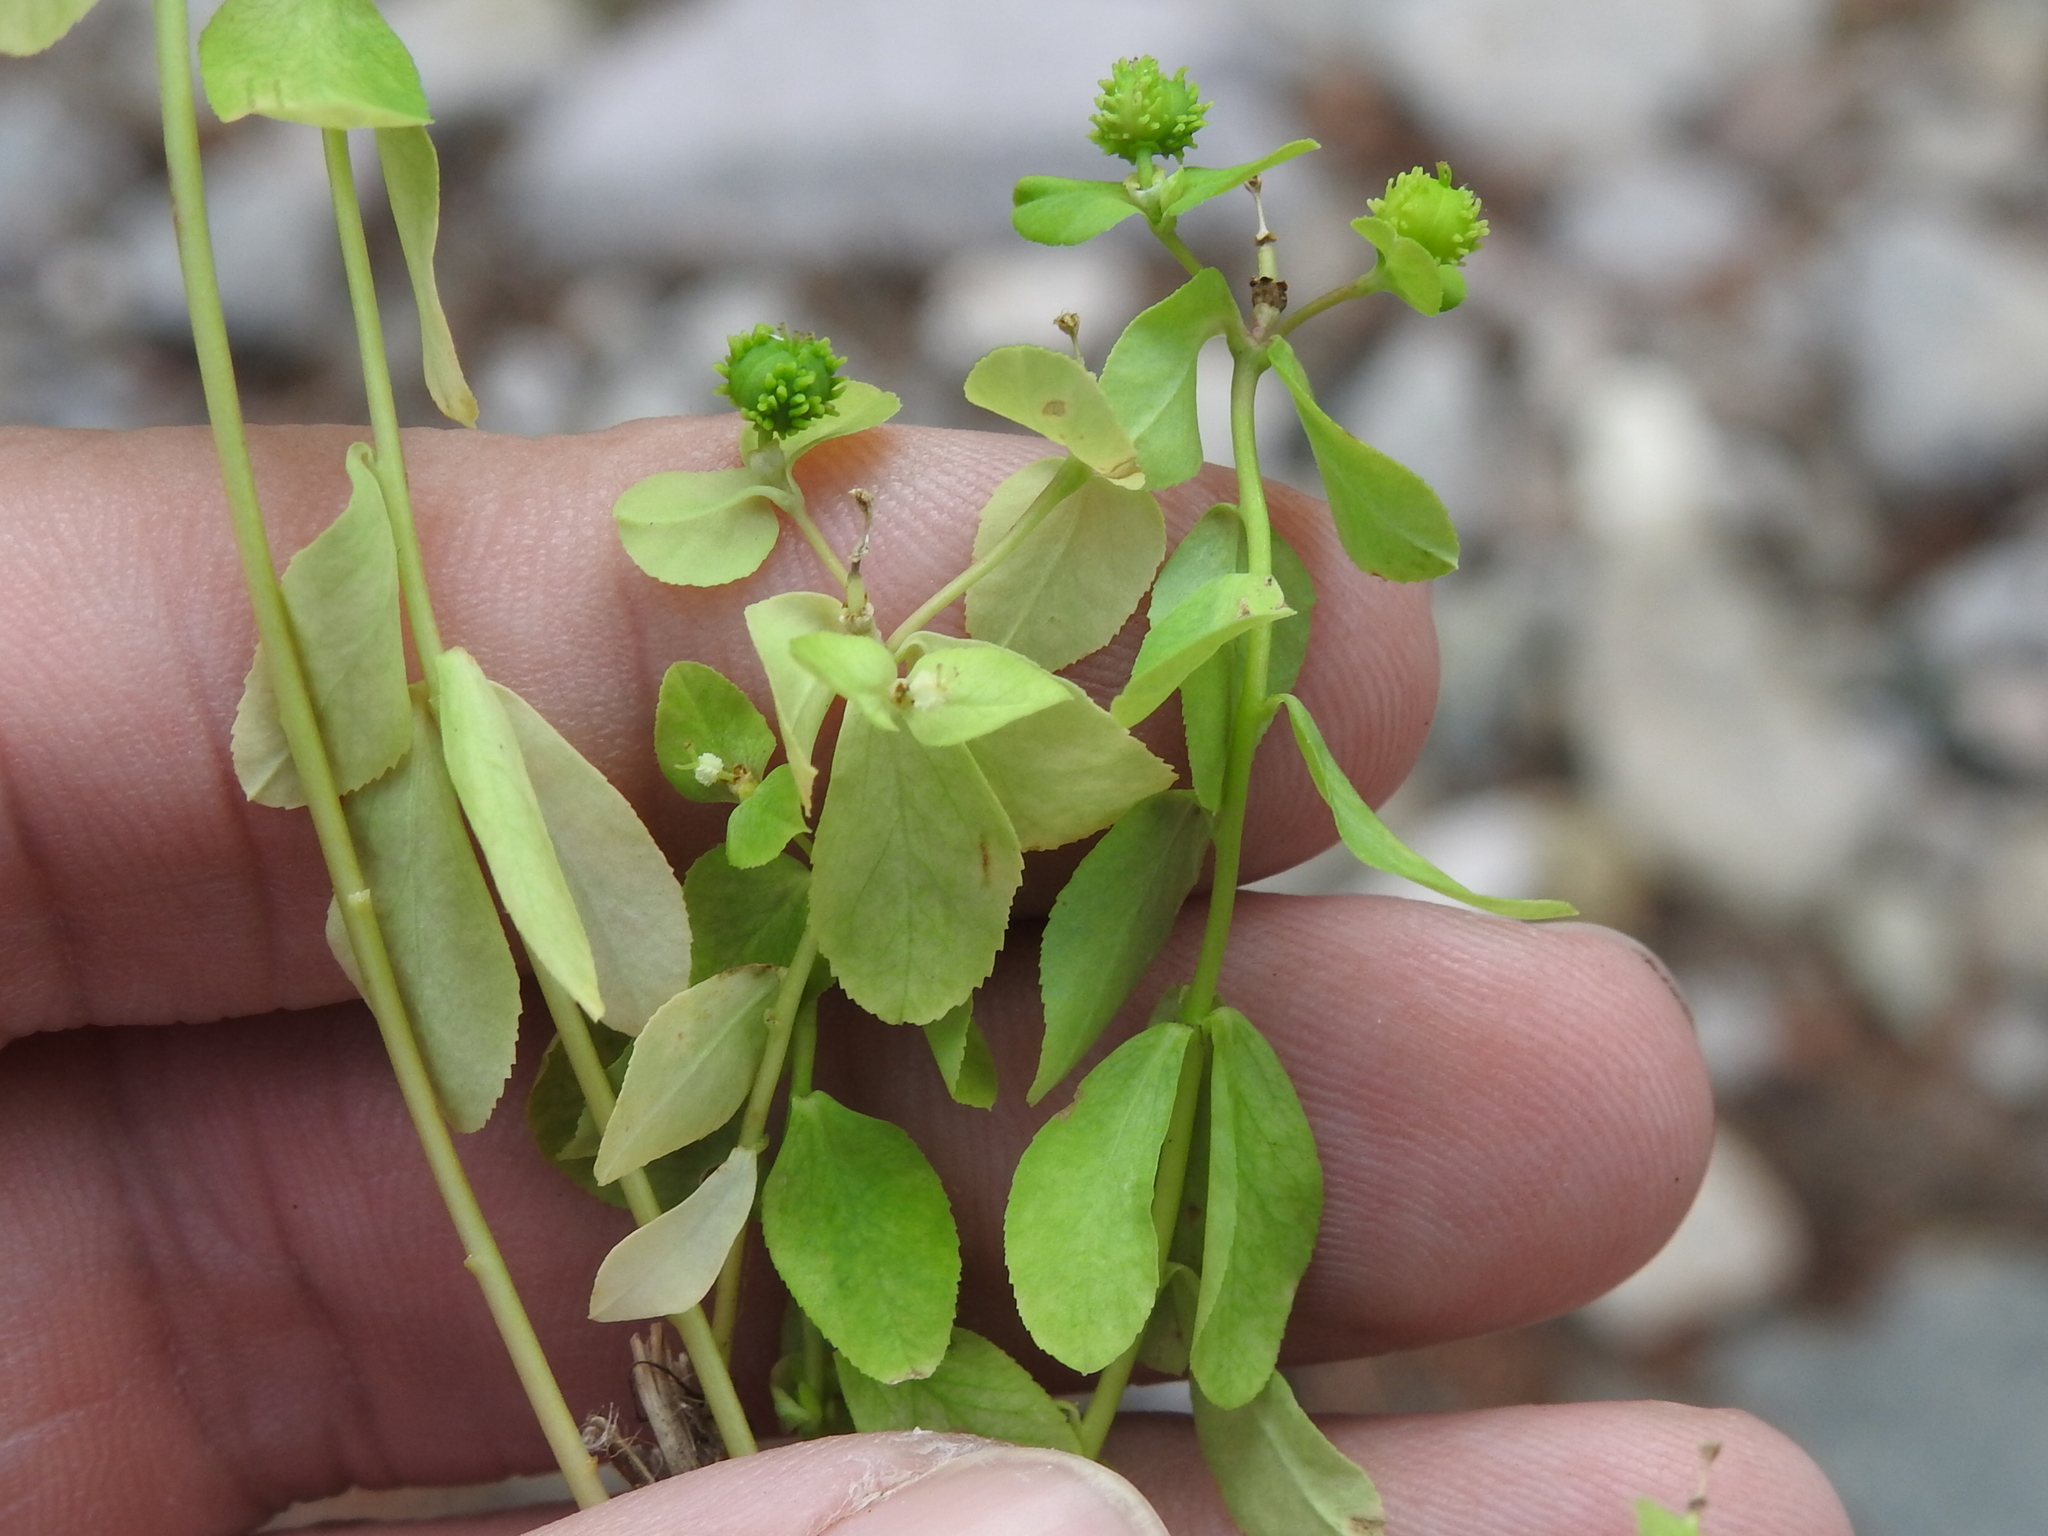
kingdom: Plantae
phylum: Tracheophyta
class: Magnoliopsida
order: Malpighiales
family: Euphorbiaceae
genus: Euphorbia
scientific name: Euphorbia alta
